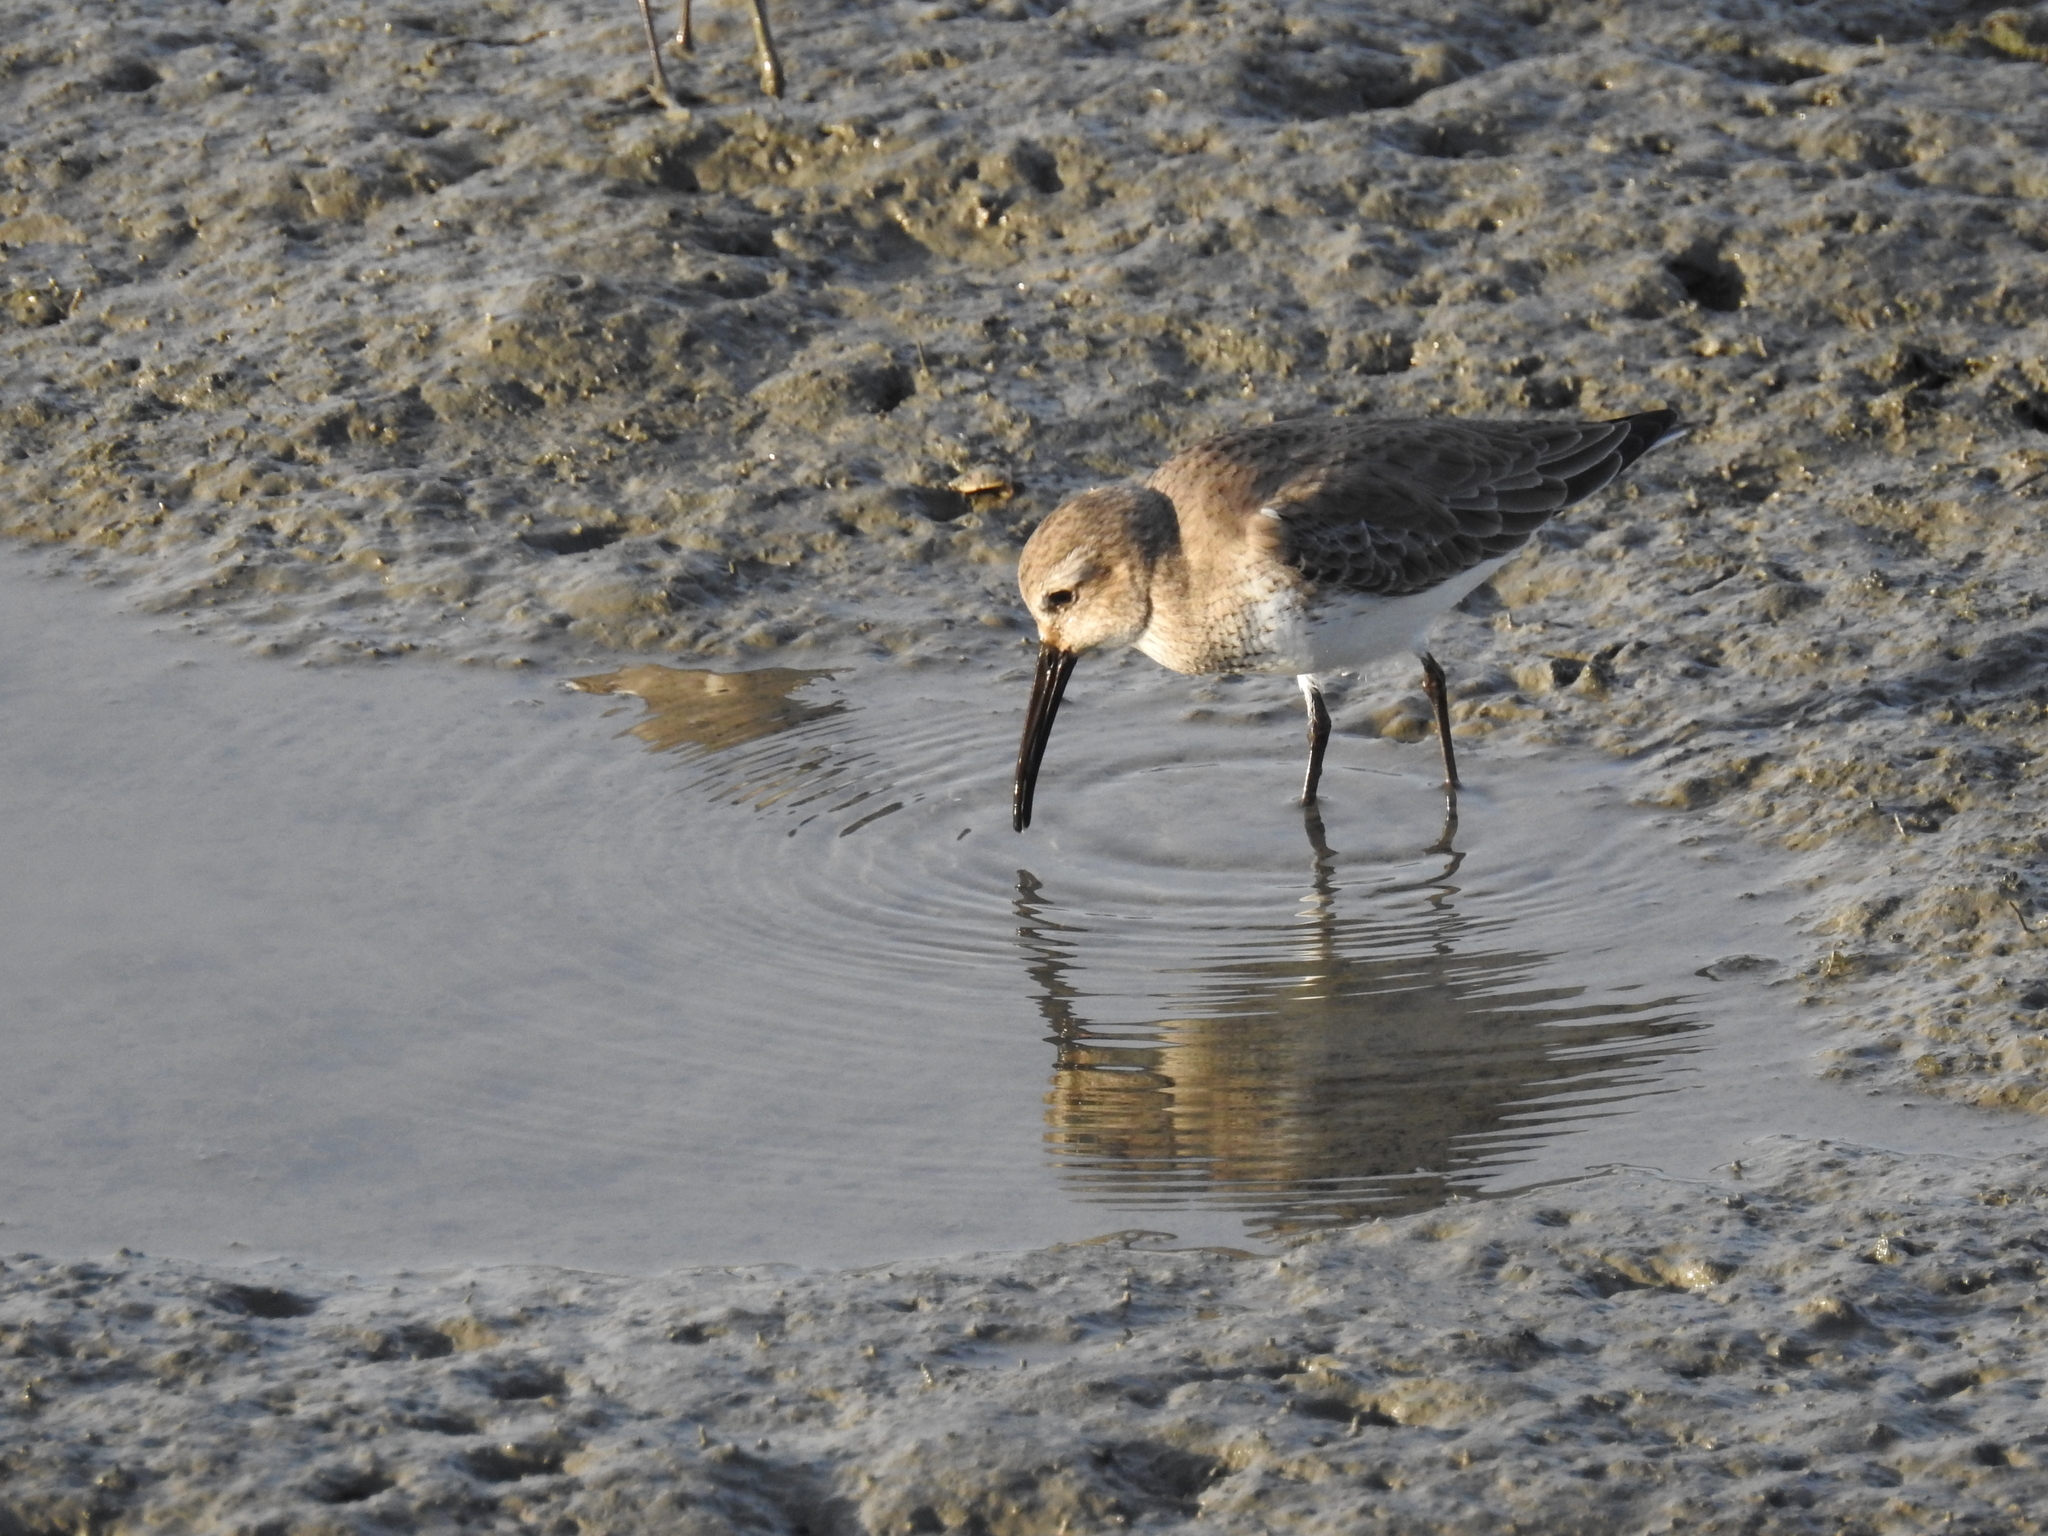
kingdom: Animalia
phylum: Chordata
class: Aves
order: Charadriiformes
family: Scolopacidae
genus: Calidris
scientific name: Calidris alpina
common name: Dunlin
